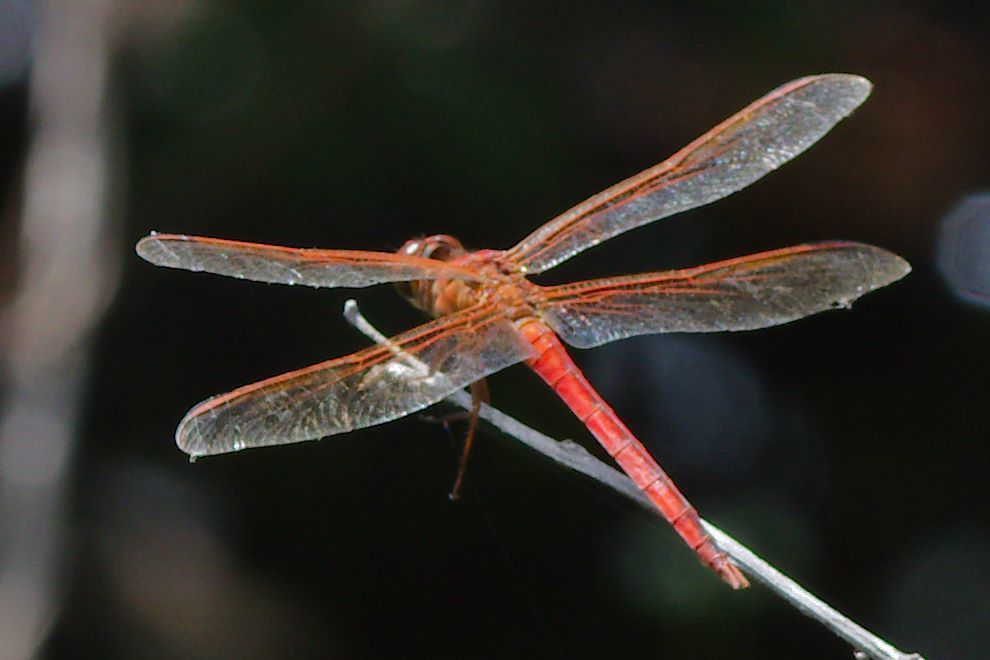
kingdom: Animalia
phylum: Arthropoda
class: Insecta
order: Odonata
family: Libellulidae
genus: Libellula
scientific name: Libellula needhami
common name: Needham's skimmer
